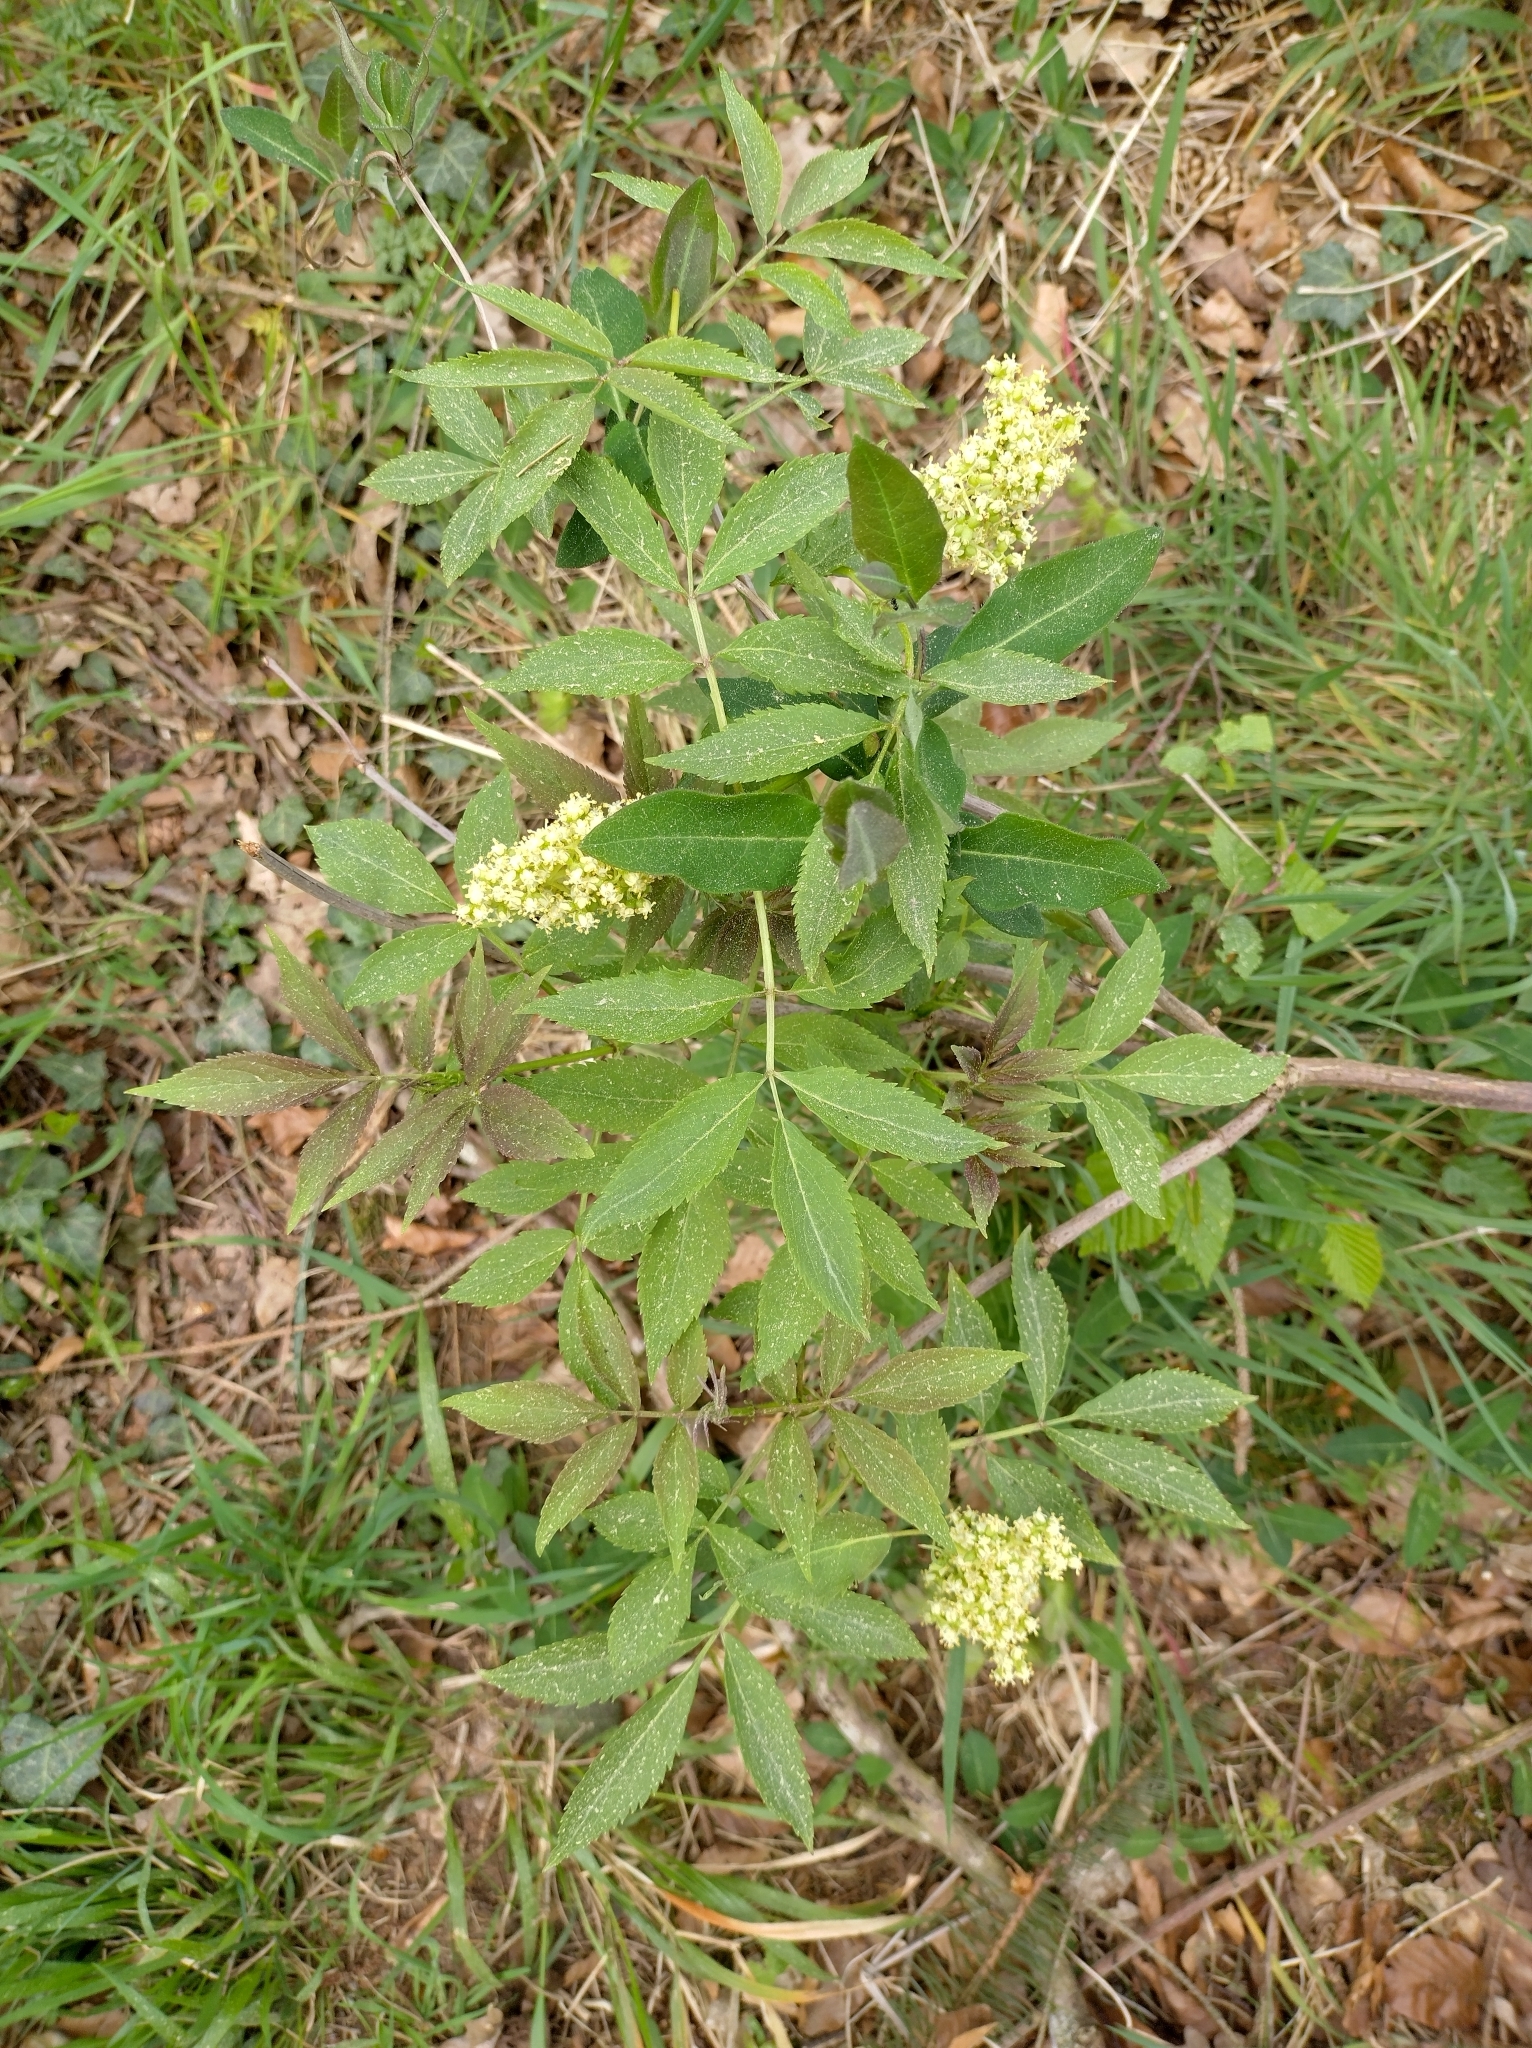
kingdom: Plantae
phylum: Tracheophyta
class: Magnoliopsida
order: Dipsacales
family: Viburnaceae
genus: Sambucus
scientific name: Sambucus racemosa
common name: Red-berried elder
